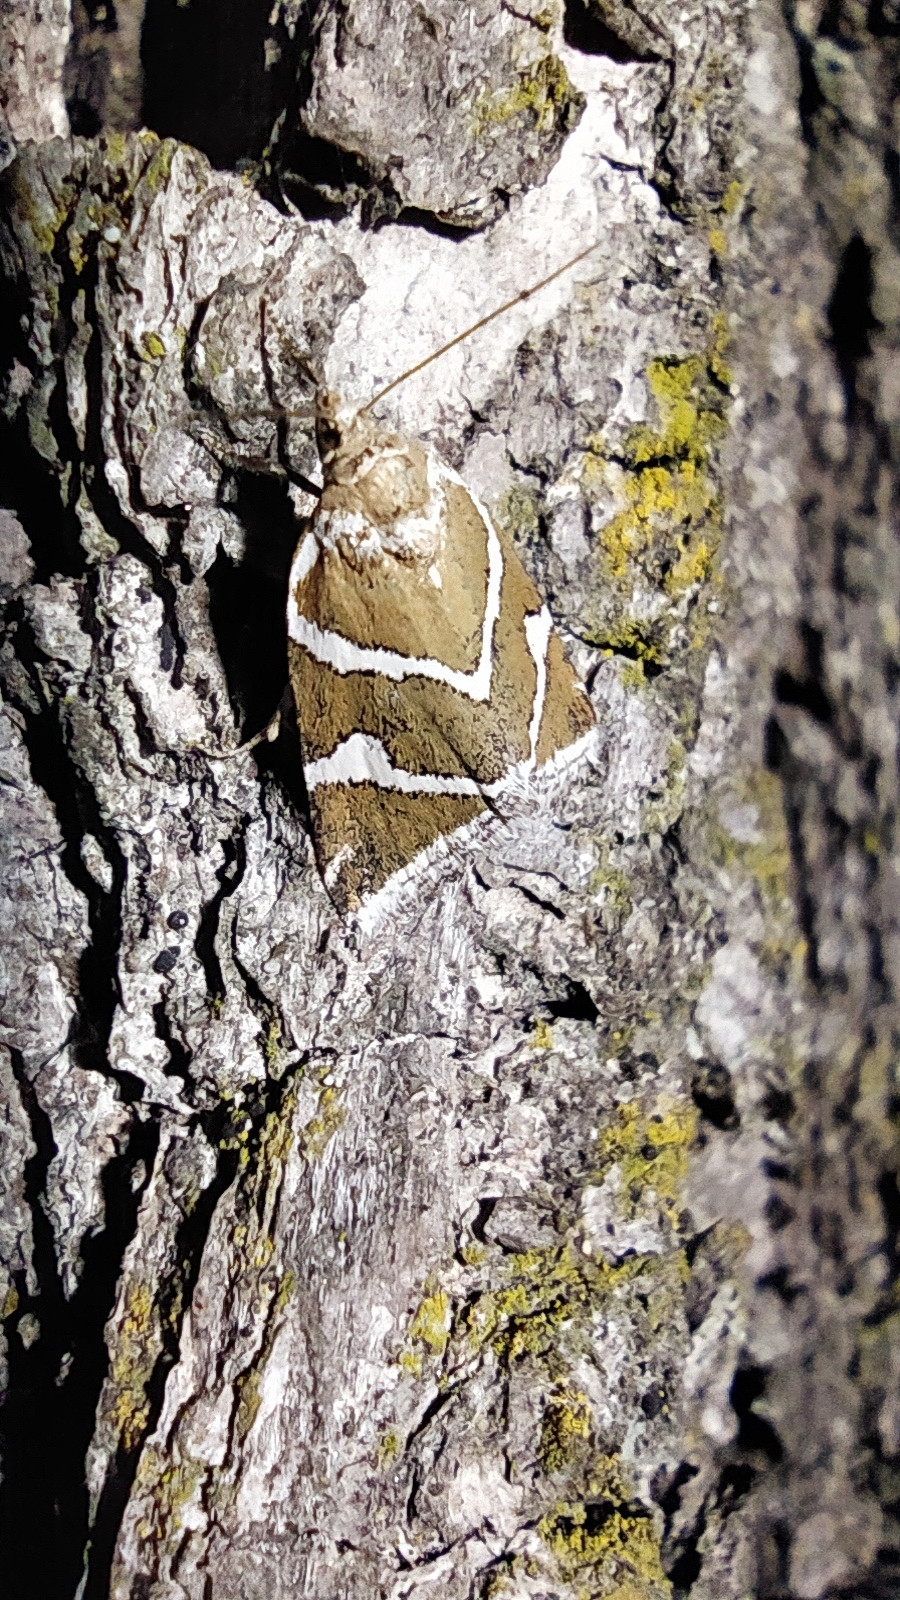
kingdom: Animalia
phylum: Arthropoda
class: Insecta
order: Lepidoptera
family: Noctuidae
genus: Deltote
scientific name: Deltote bankiana
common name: Silver barred
